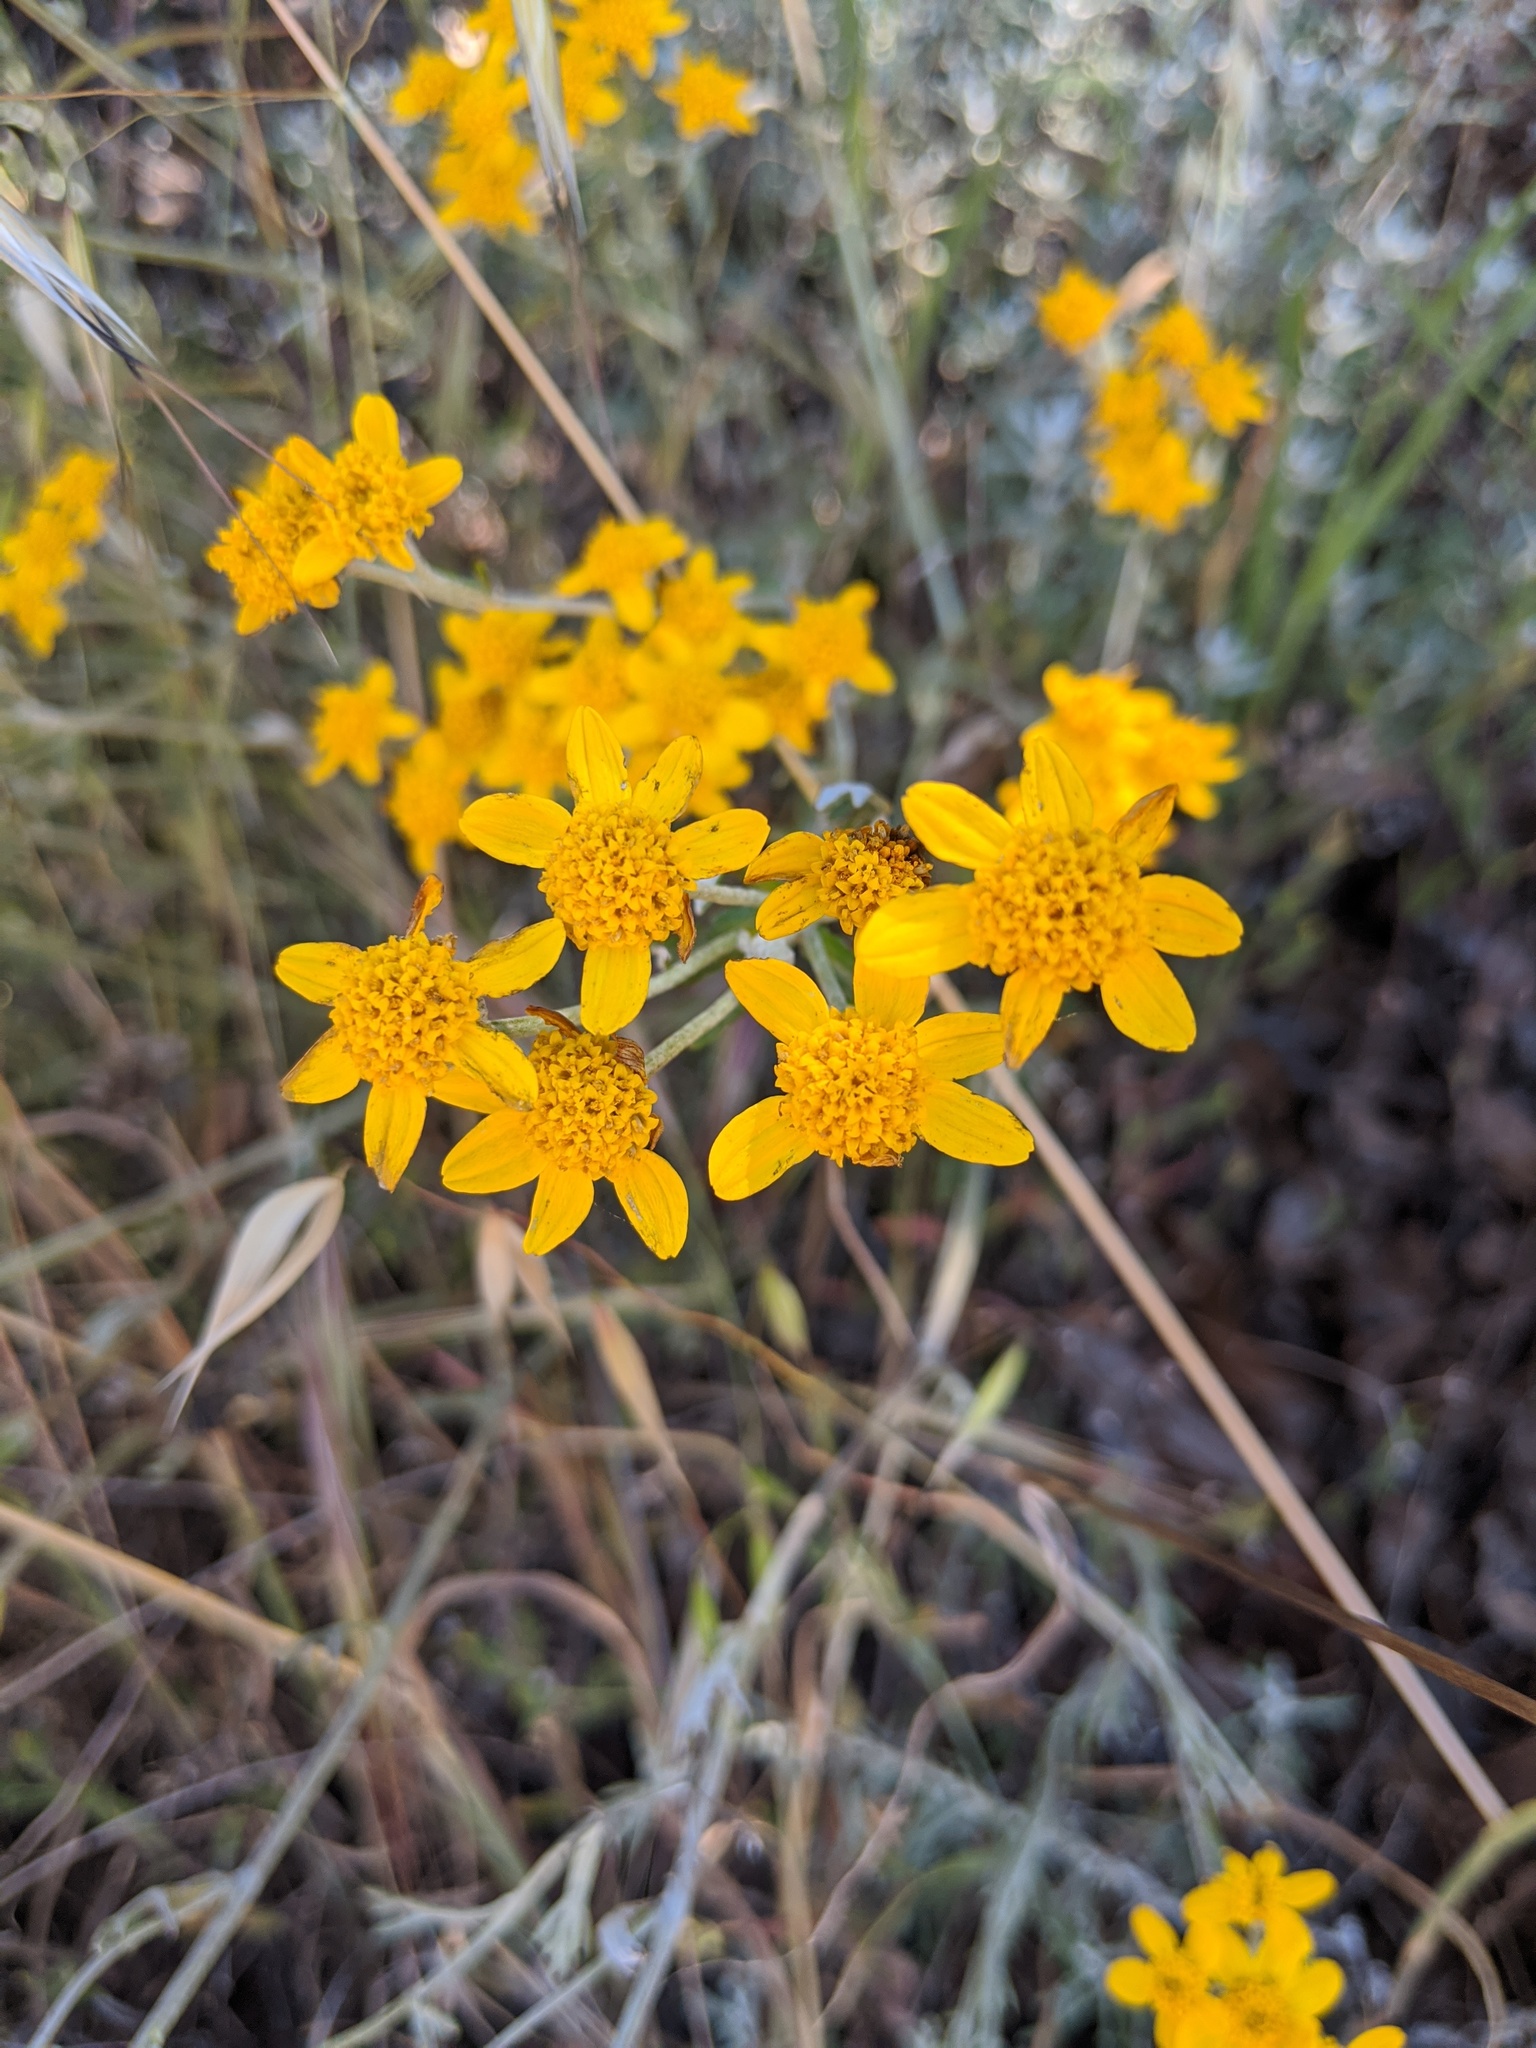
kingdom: Plantae
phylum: Tracheophyta
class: Magnoliopsida
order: Asterales
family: Asteraceae
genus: Eriophyllum
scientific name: Eriophyllum confertiflorum
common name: Golden-yarrow
